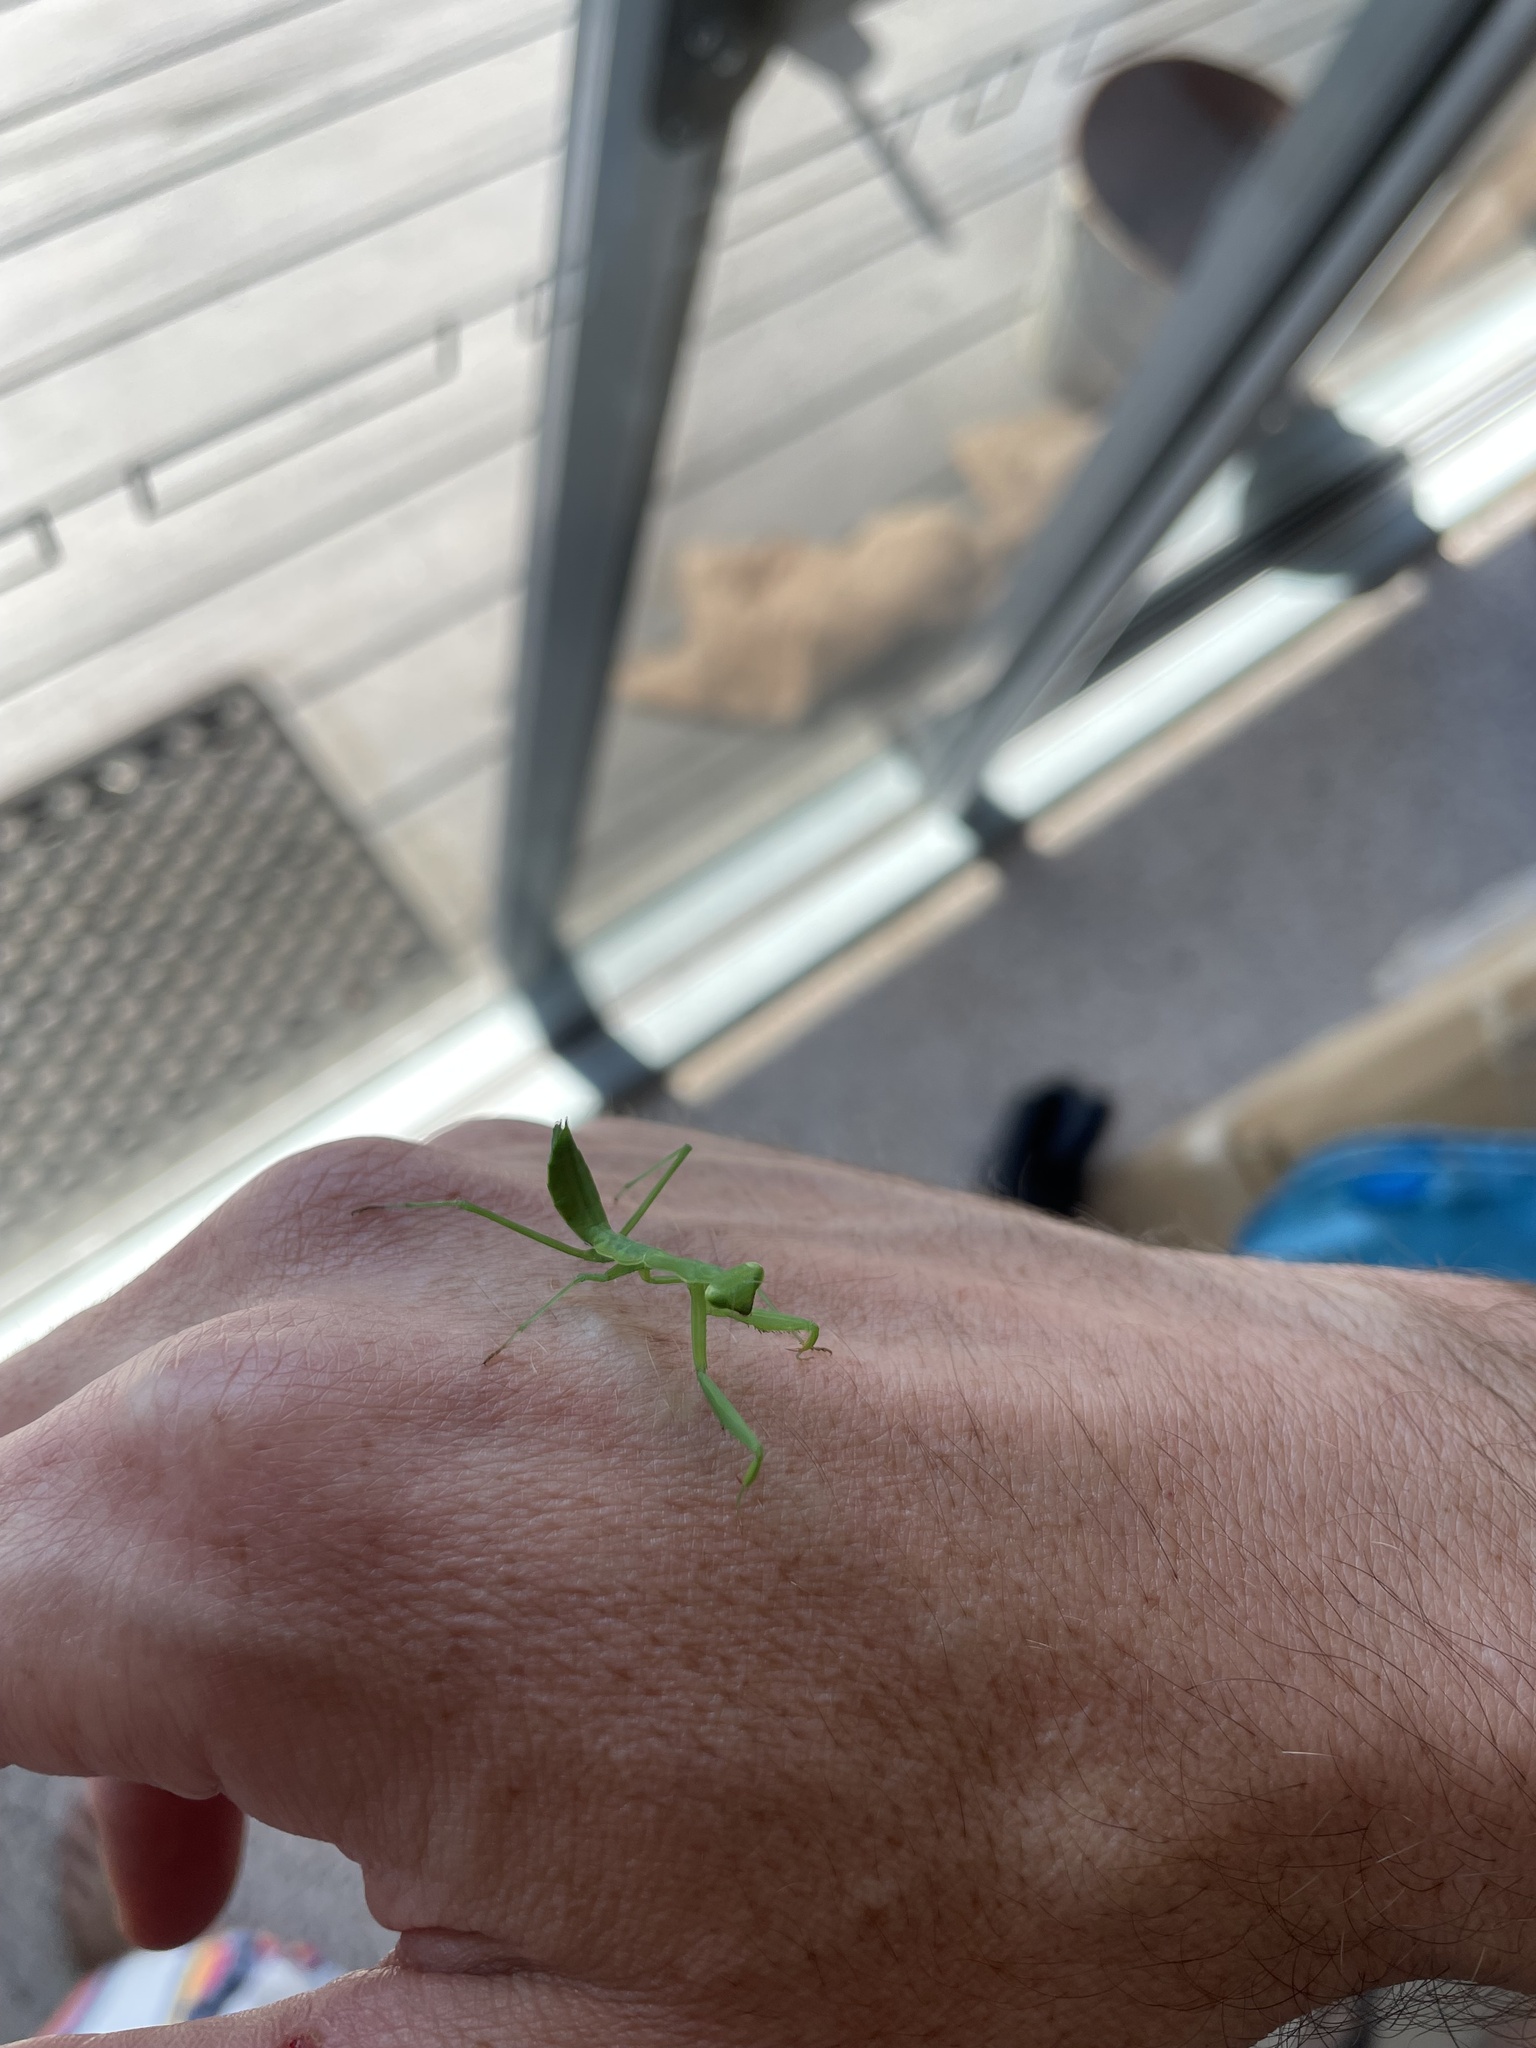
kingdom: Animalia
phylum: Arthropoda
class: Insecta
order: Mantodea
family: Miomantidae
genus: Miomantis
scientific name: Miomantis caffra
